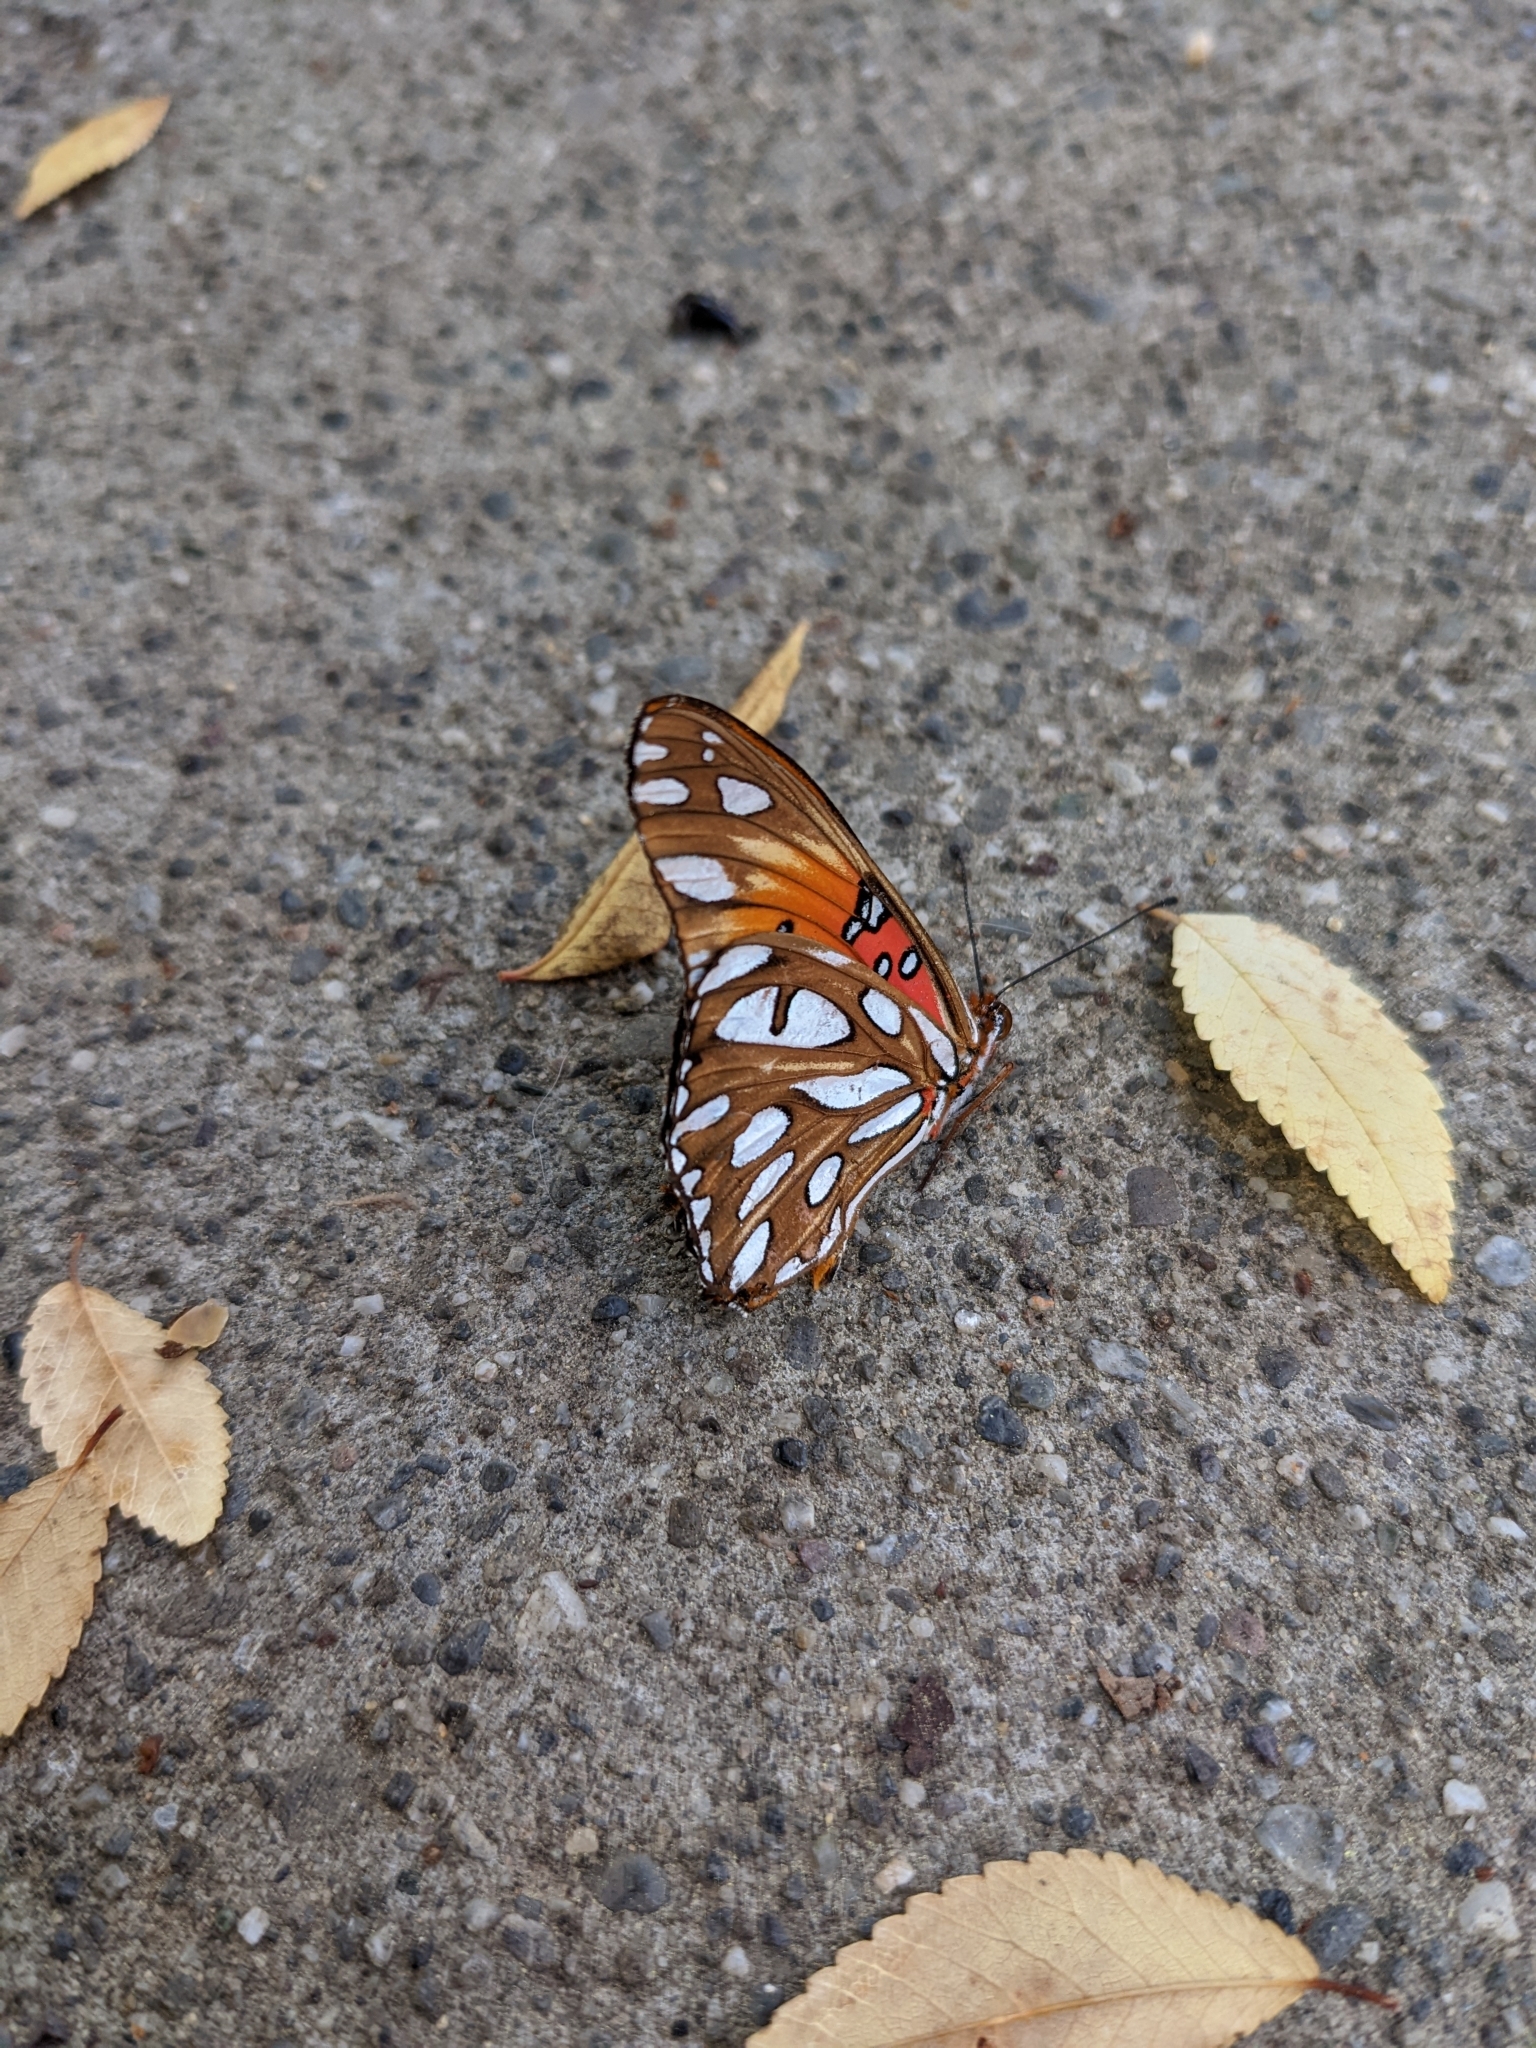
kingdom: Animalia
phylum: Arthropoda
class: Insecta
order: Lepidoptera
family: Nymphalidae
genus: Dione
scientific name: Dione vanillae
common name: Gulf fritillary
